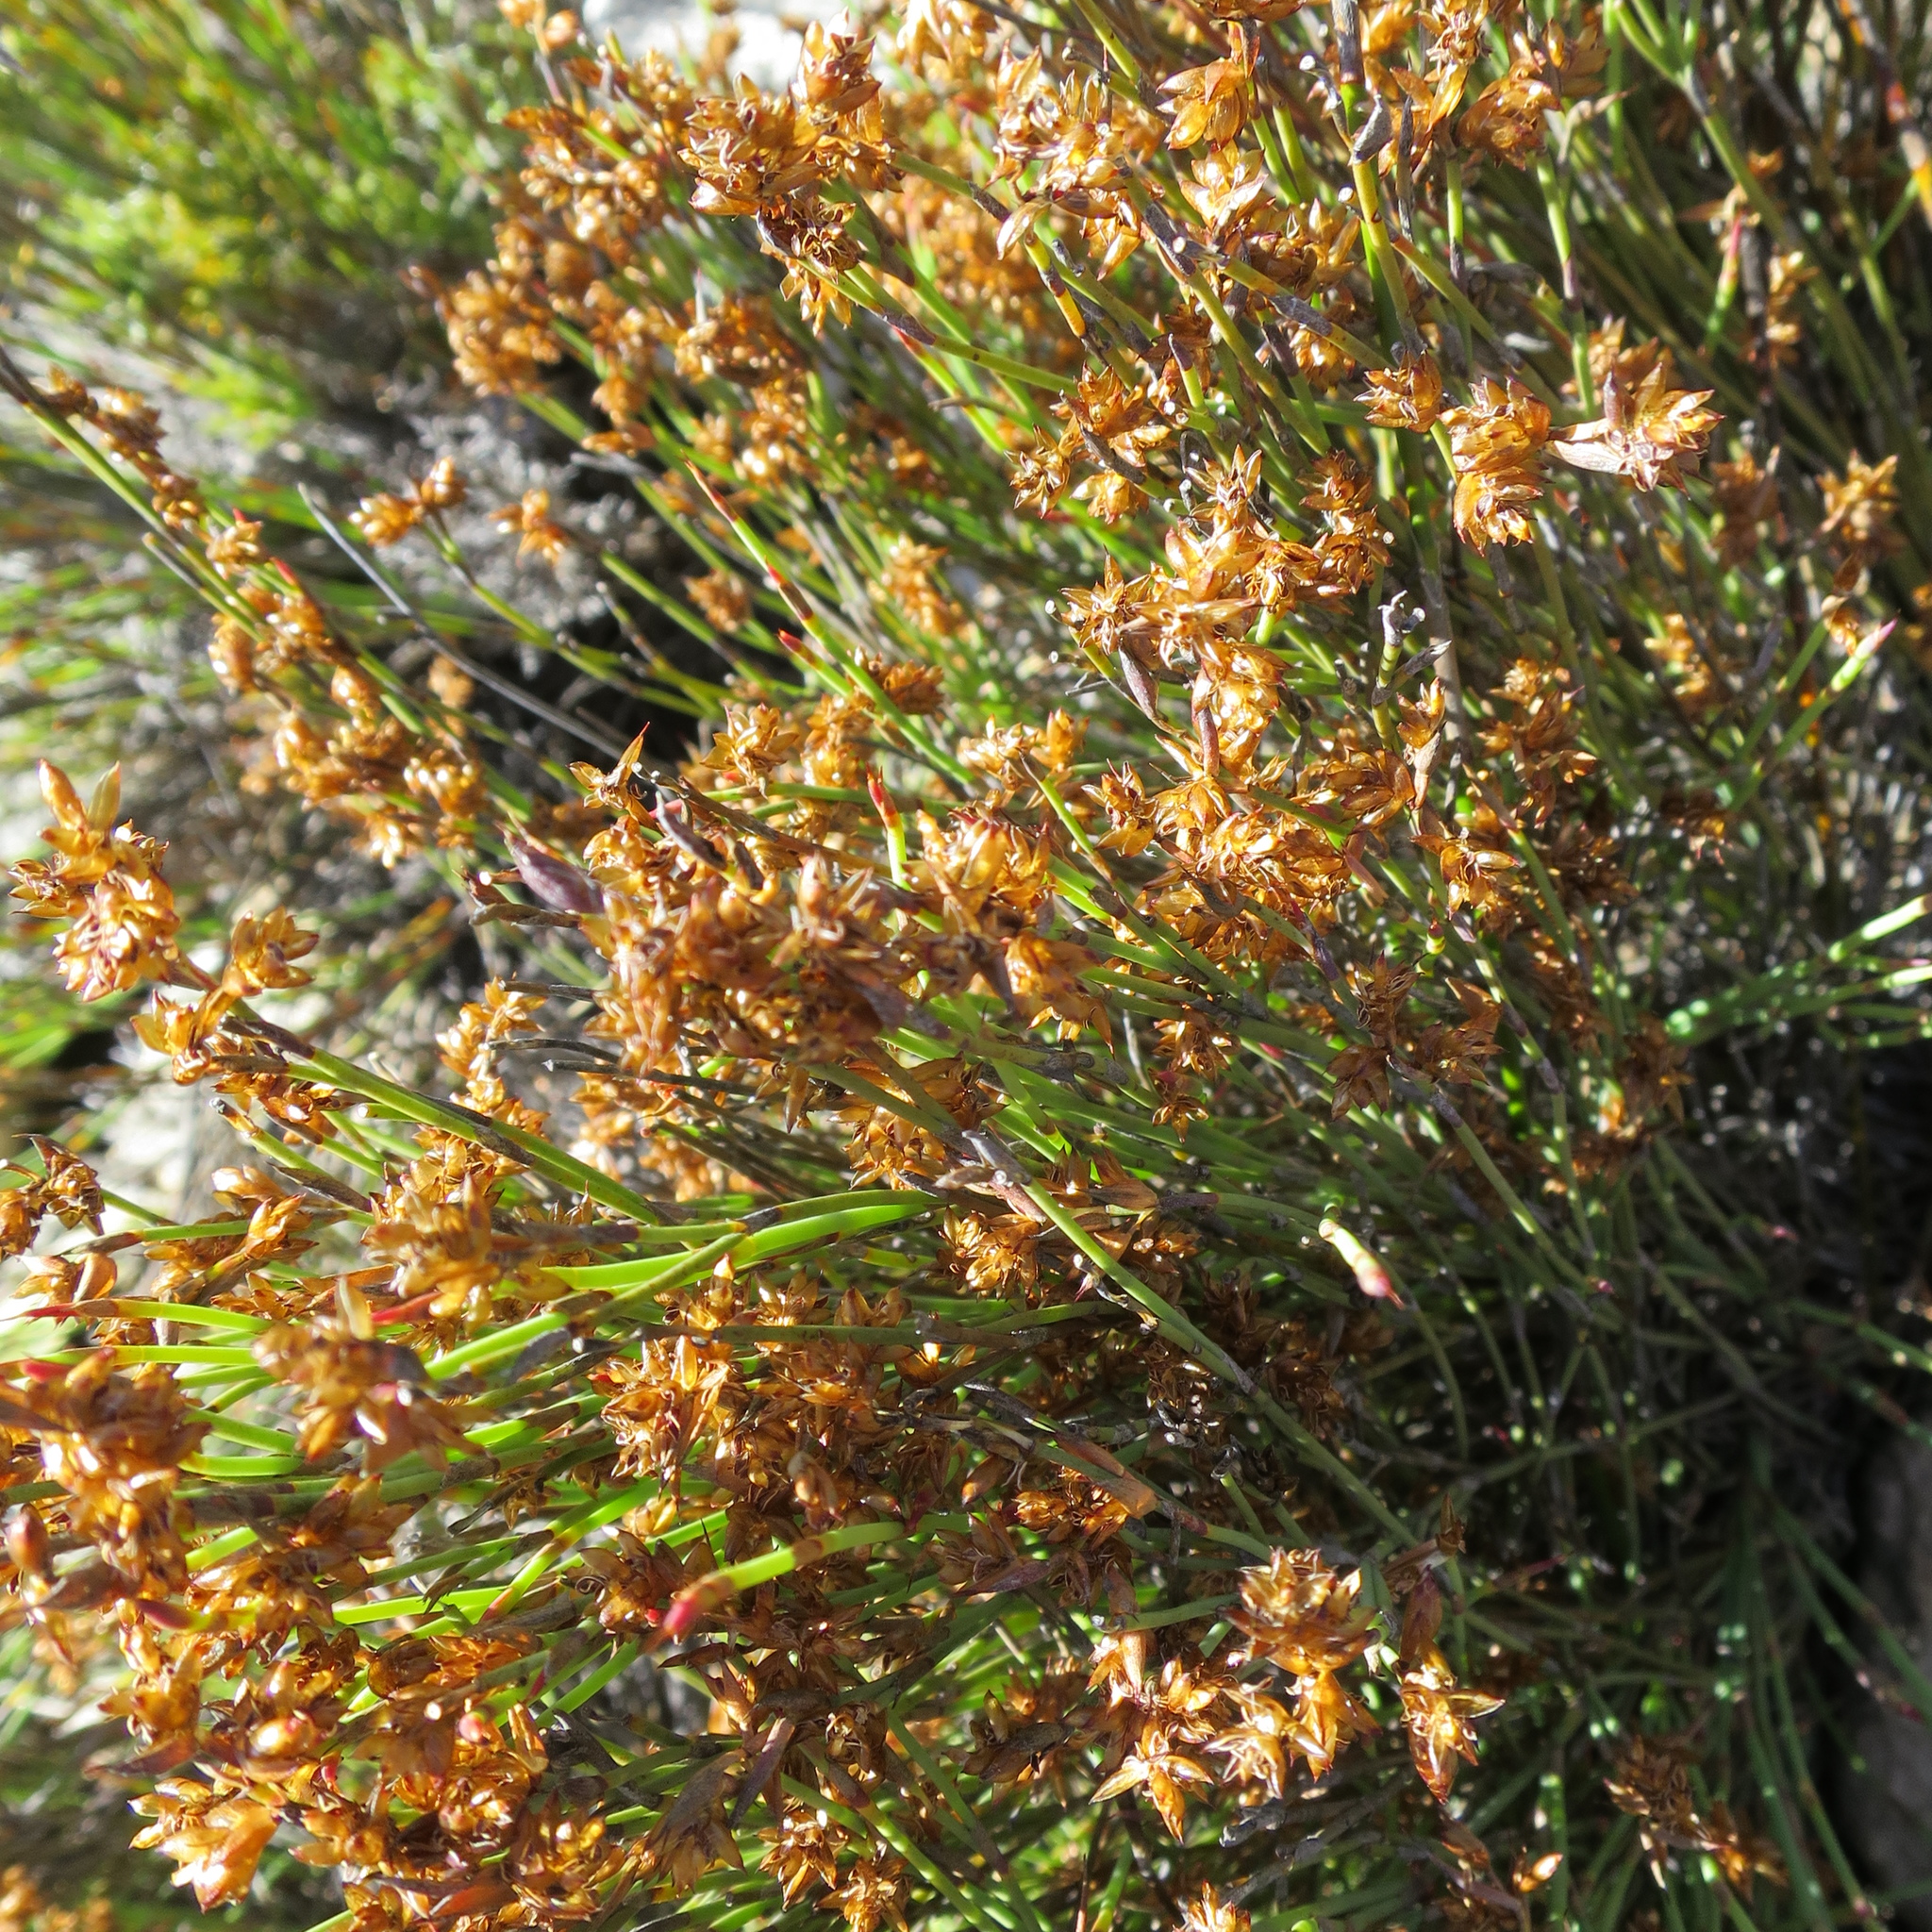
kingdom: Plantae
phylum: Tracheophyta
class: Liliopsida
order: Poales
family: Restionaceae
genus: Mastersiella
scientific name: Mastersiella spathulata
